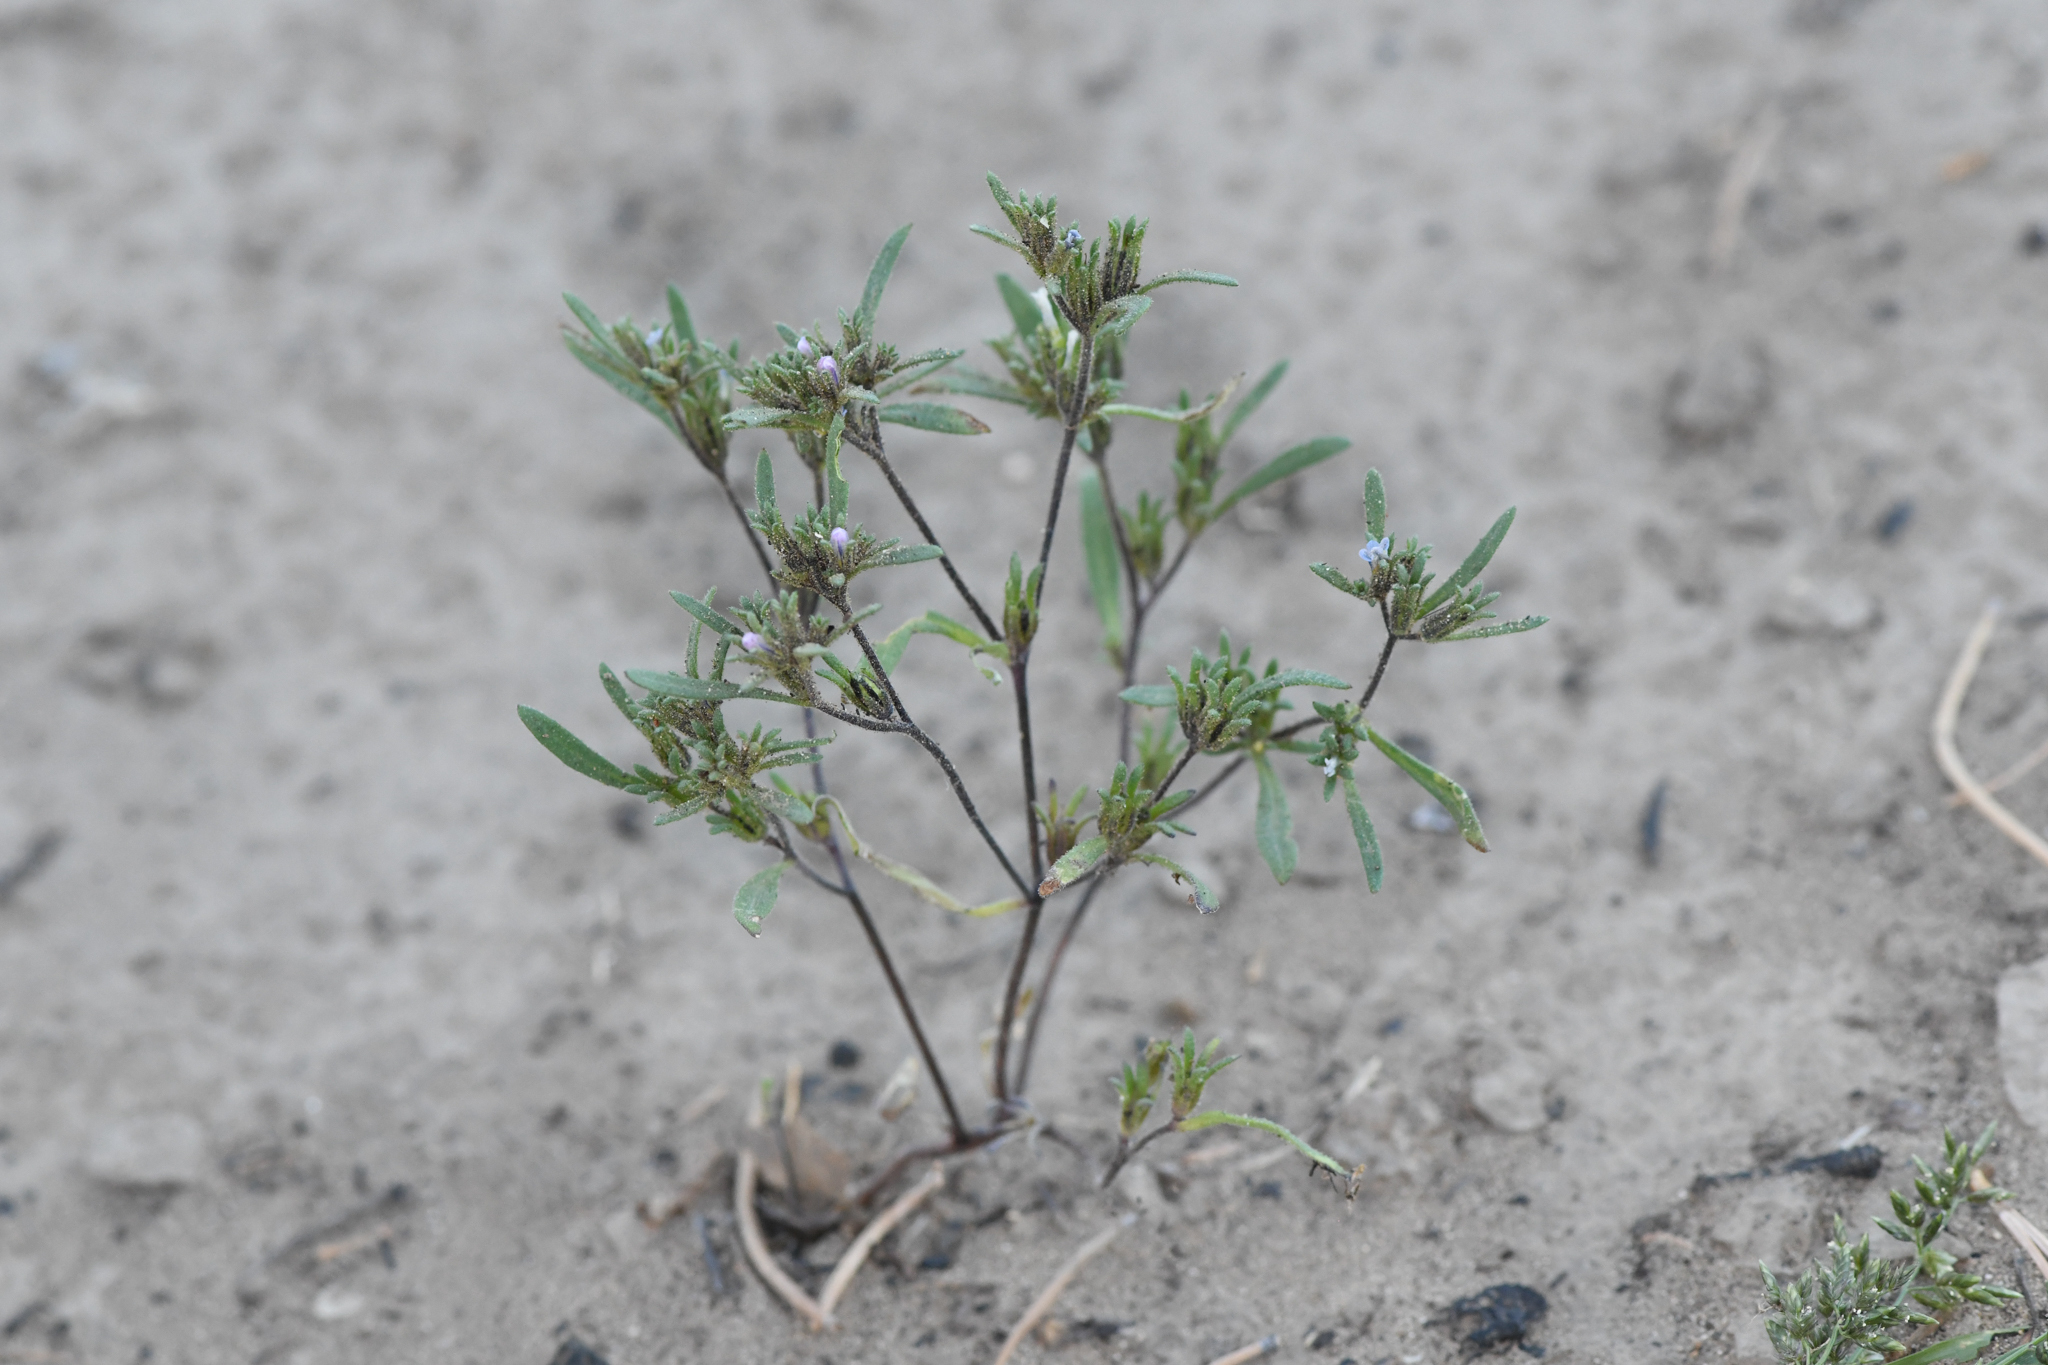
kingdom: Plantae
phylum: Tracheophyta
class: Magnoliopsida
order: Boraginales
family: Namaceae
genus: Nama
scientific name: Nama dichotoma
